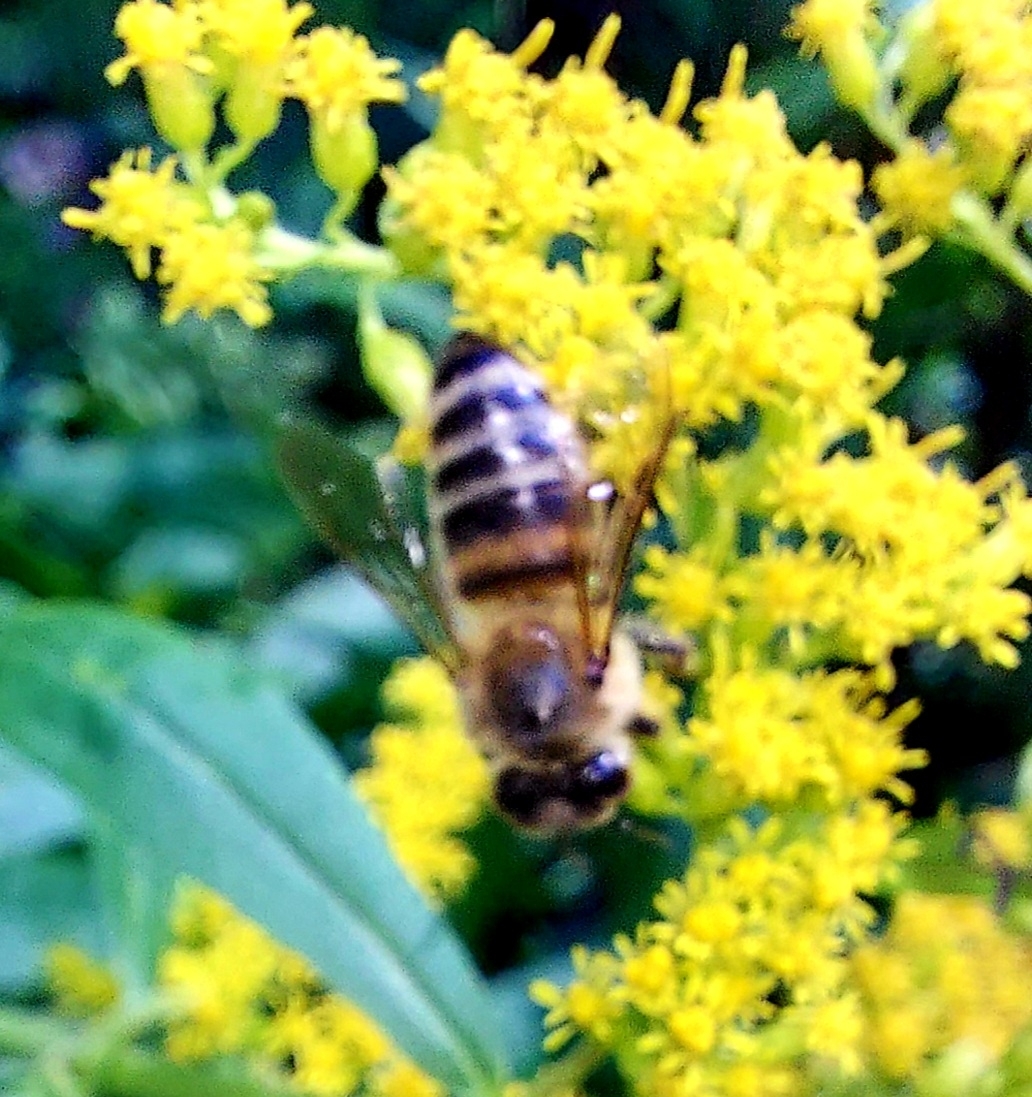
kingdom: Animalia
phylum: Arthropoda
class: Insecta
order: Hymenoptera
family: Apidae
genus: Apis
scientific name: Apis mellifera
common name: Honey bee
